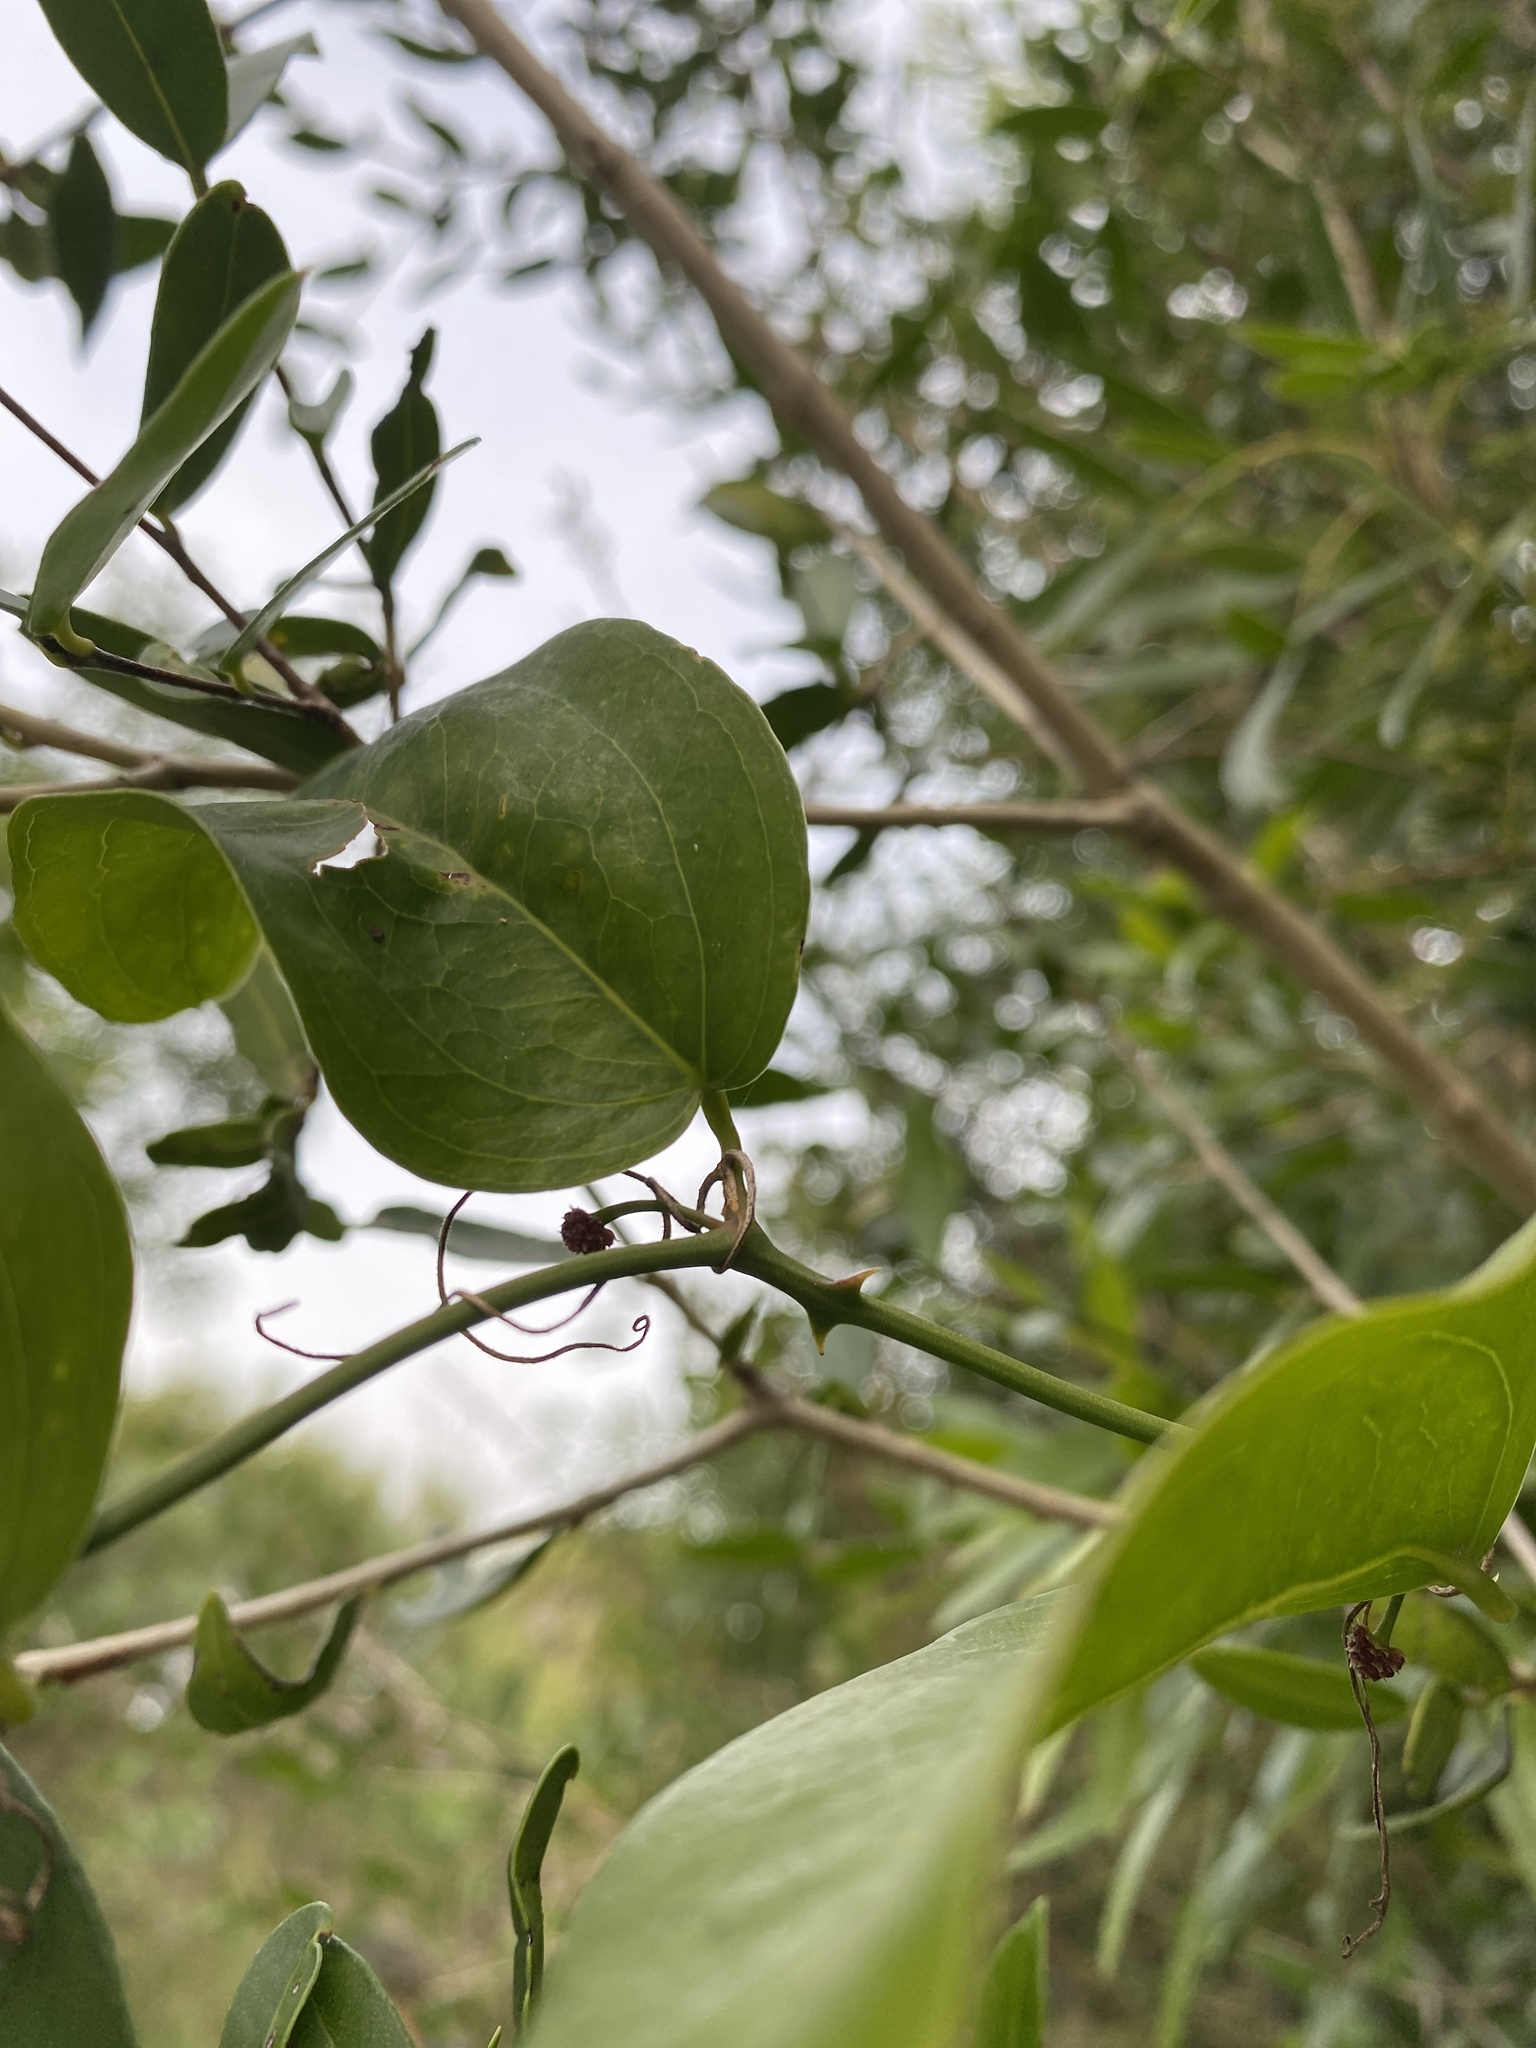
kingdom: Plantae
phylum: Tracheophyta
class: Liliopsida
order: Liliales
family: Smilacaceae
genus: Smilax
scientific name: Smilax campestris
